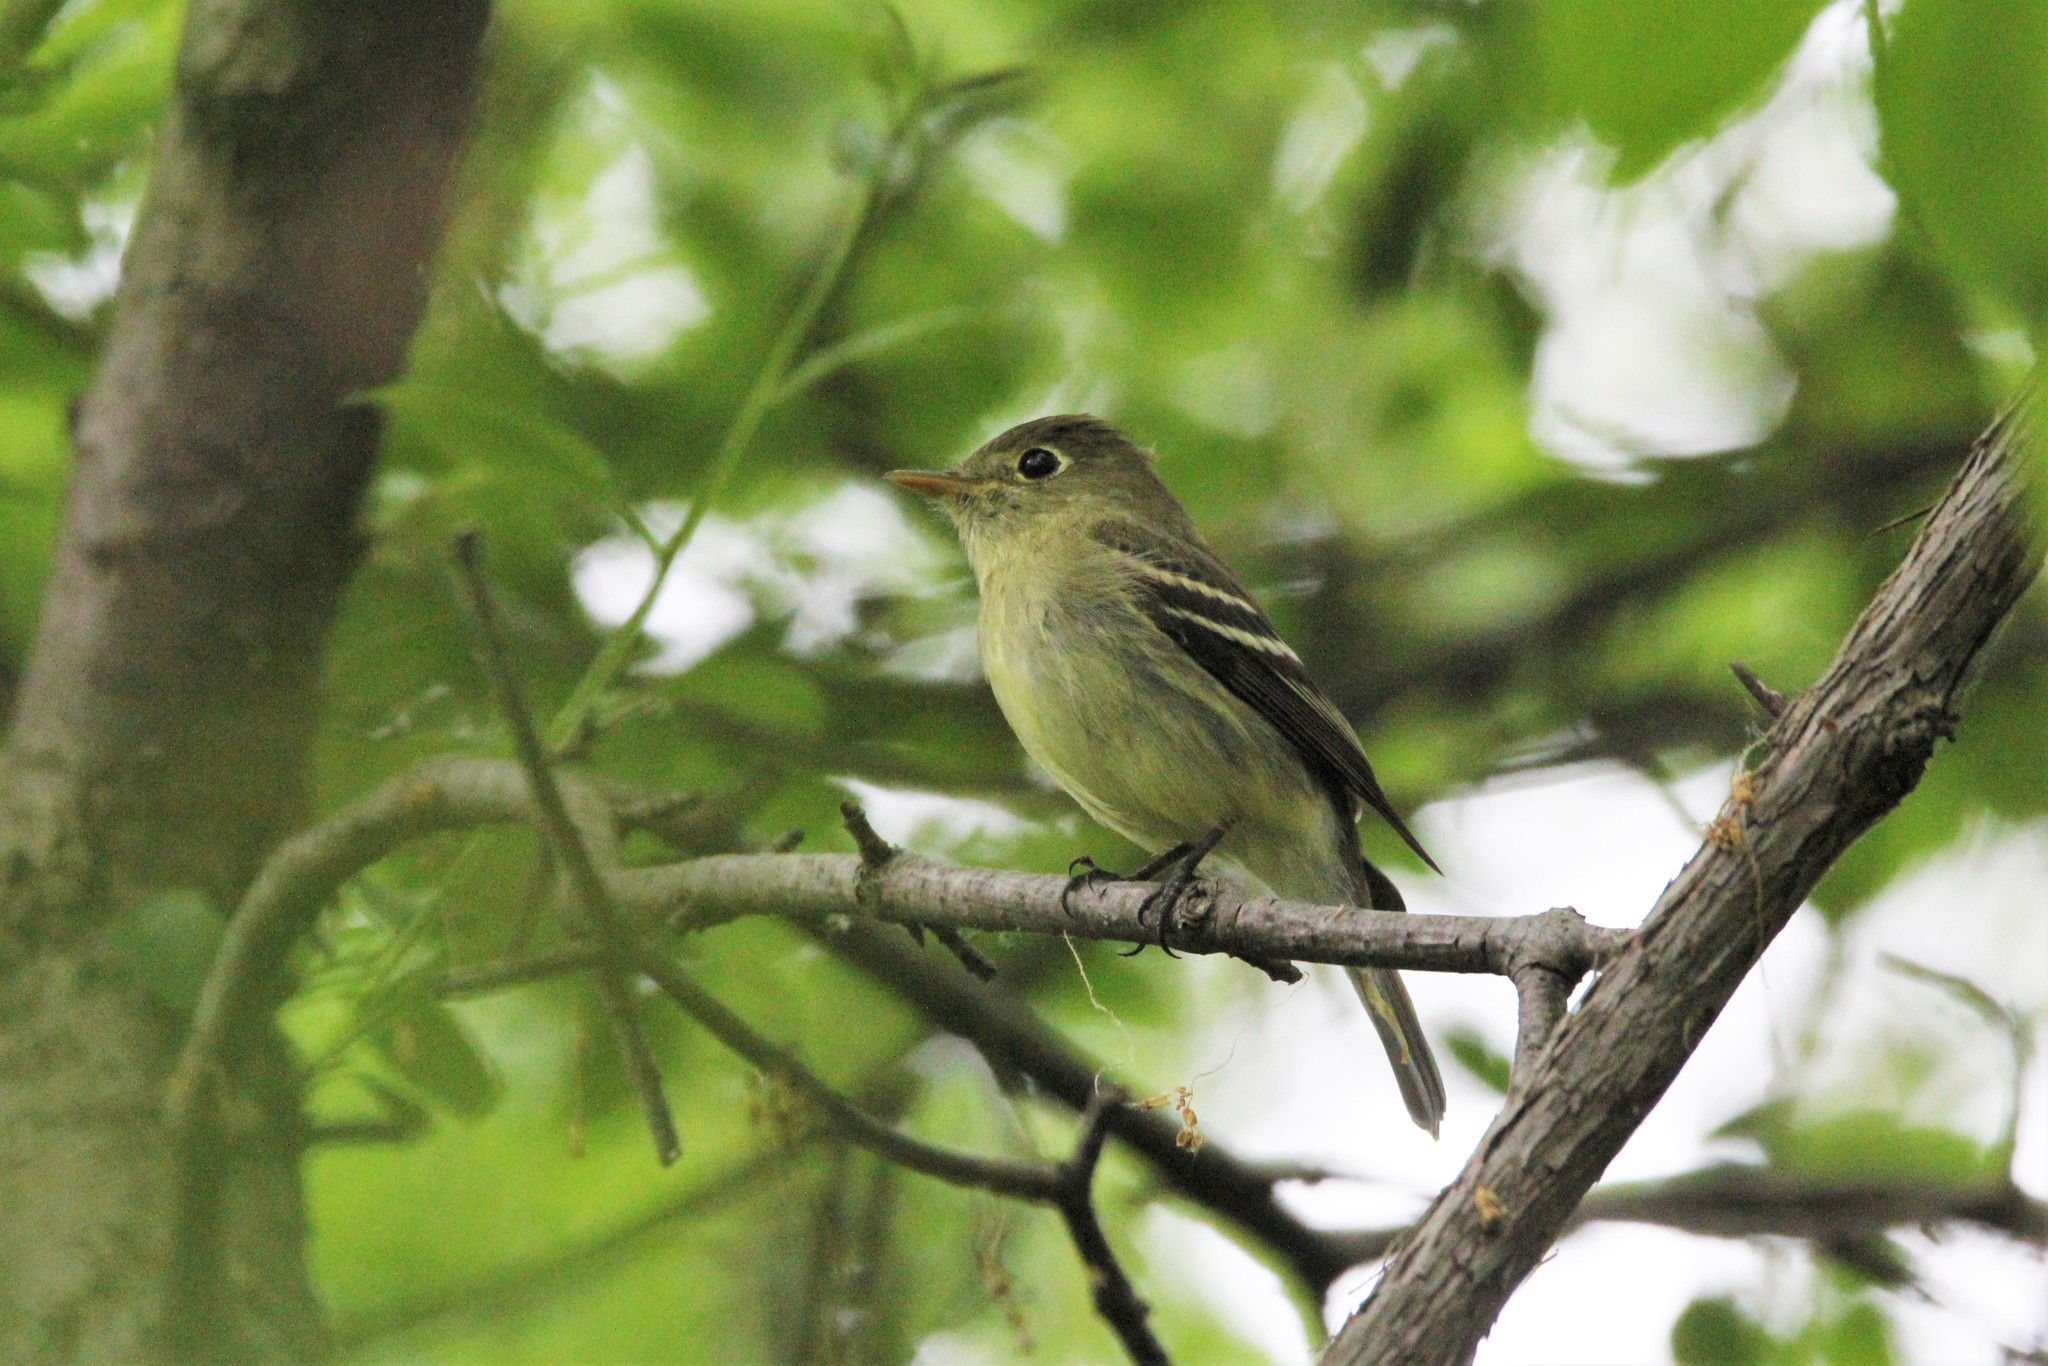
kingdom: Animalia
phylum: Chordata
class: Aves
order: Passeriformes
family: Tyrannidae
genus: Empidonax
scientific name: Empidonax flaviventris
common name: Yellow-bellied flycatcher
